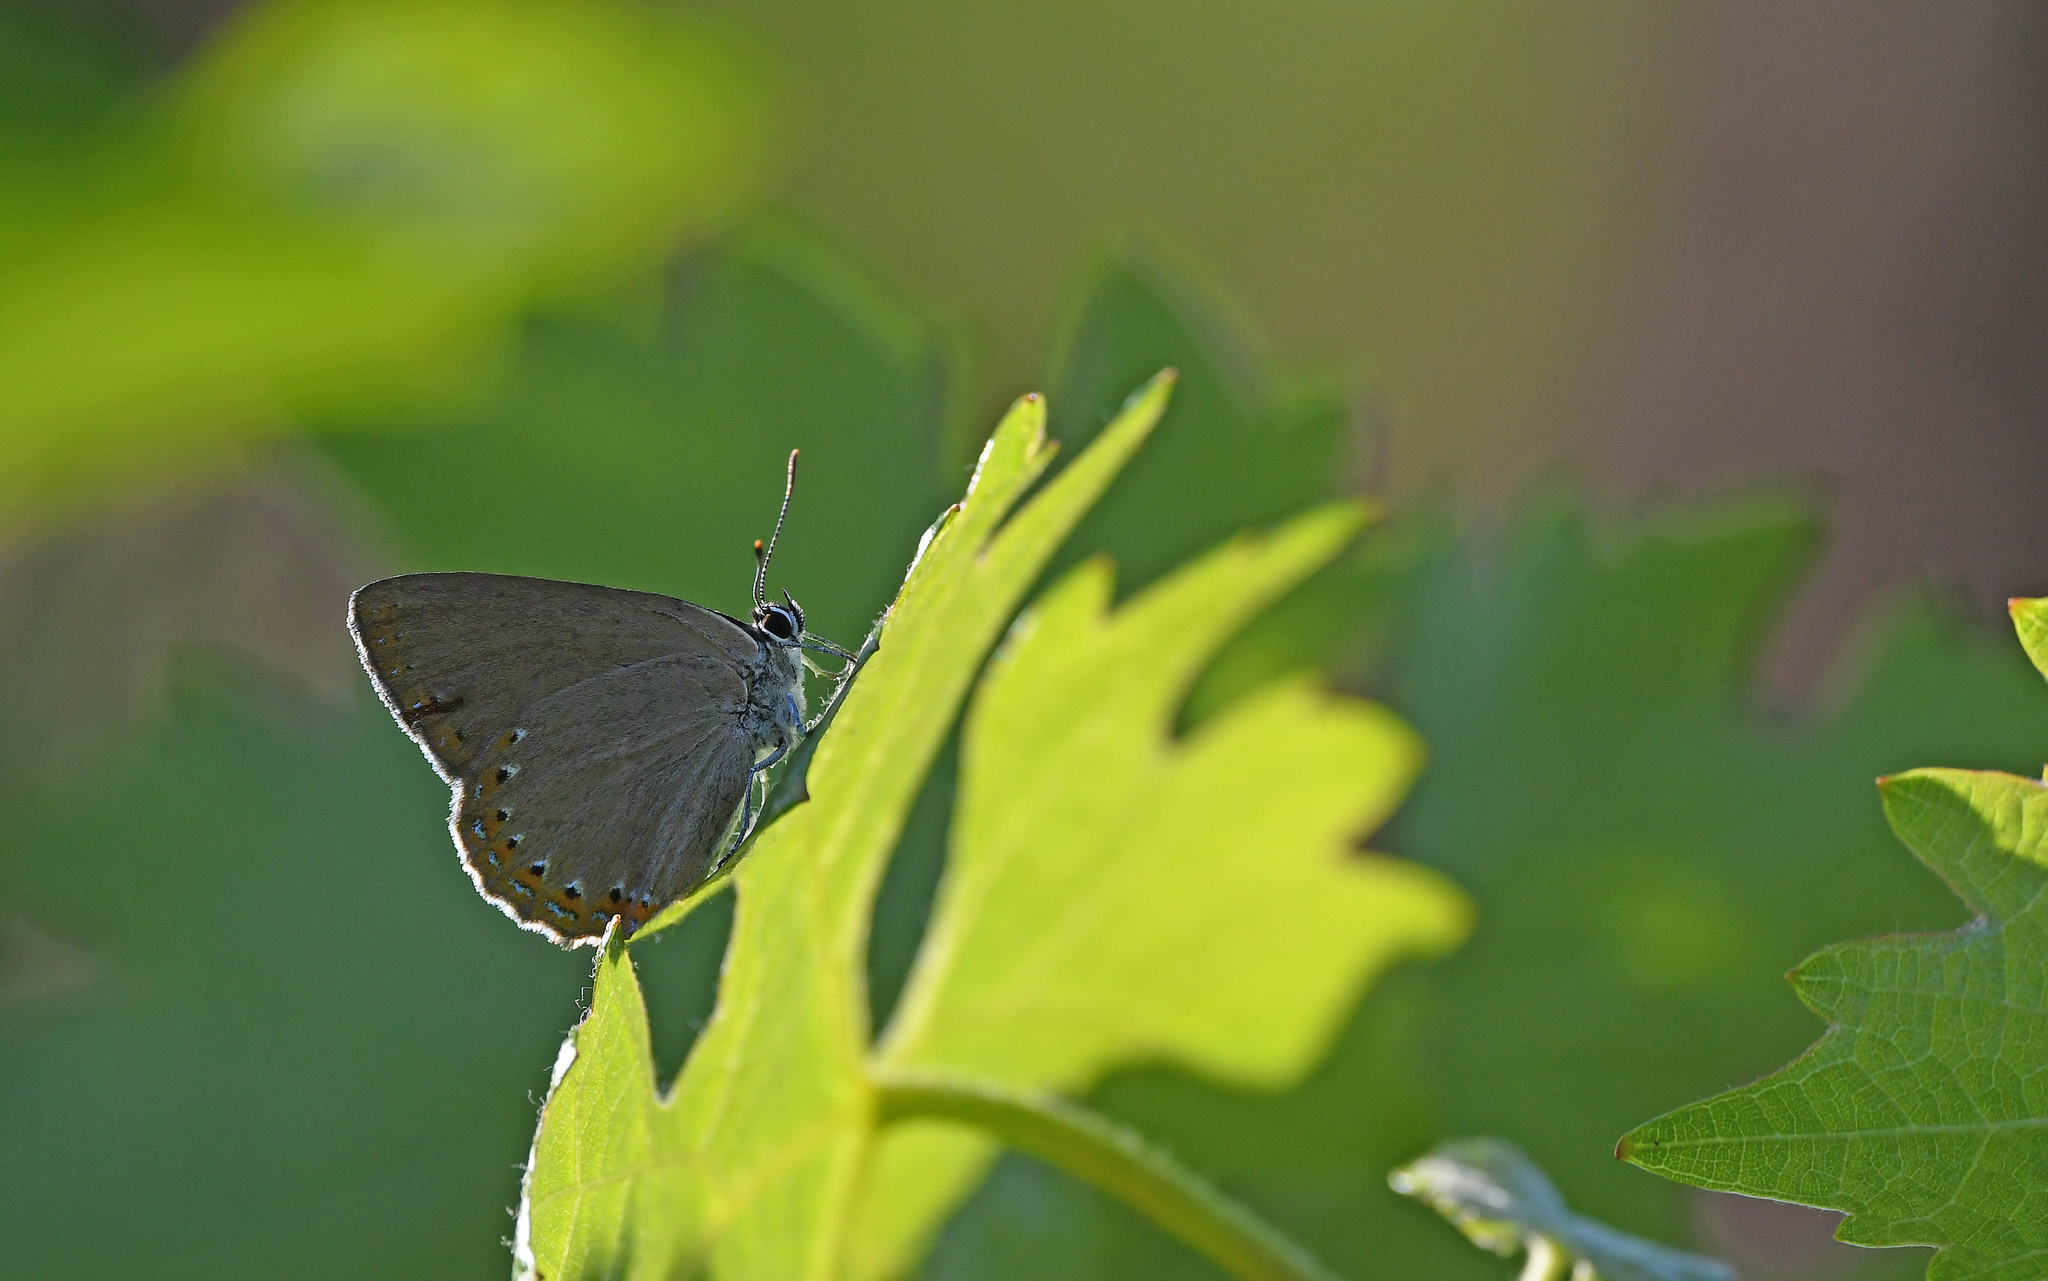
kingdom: Animalia
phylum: Arthropoda
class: Insecta
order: Lepidoptera
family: Lycaenidae
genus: Laeosopis
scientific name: Laeosopis roboris
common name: Spanish purple hairstreak
